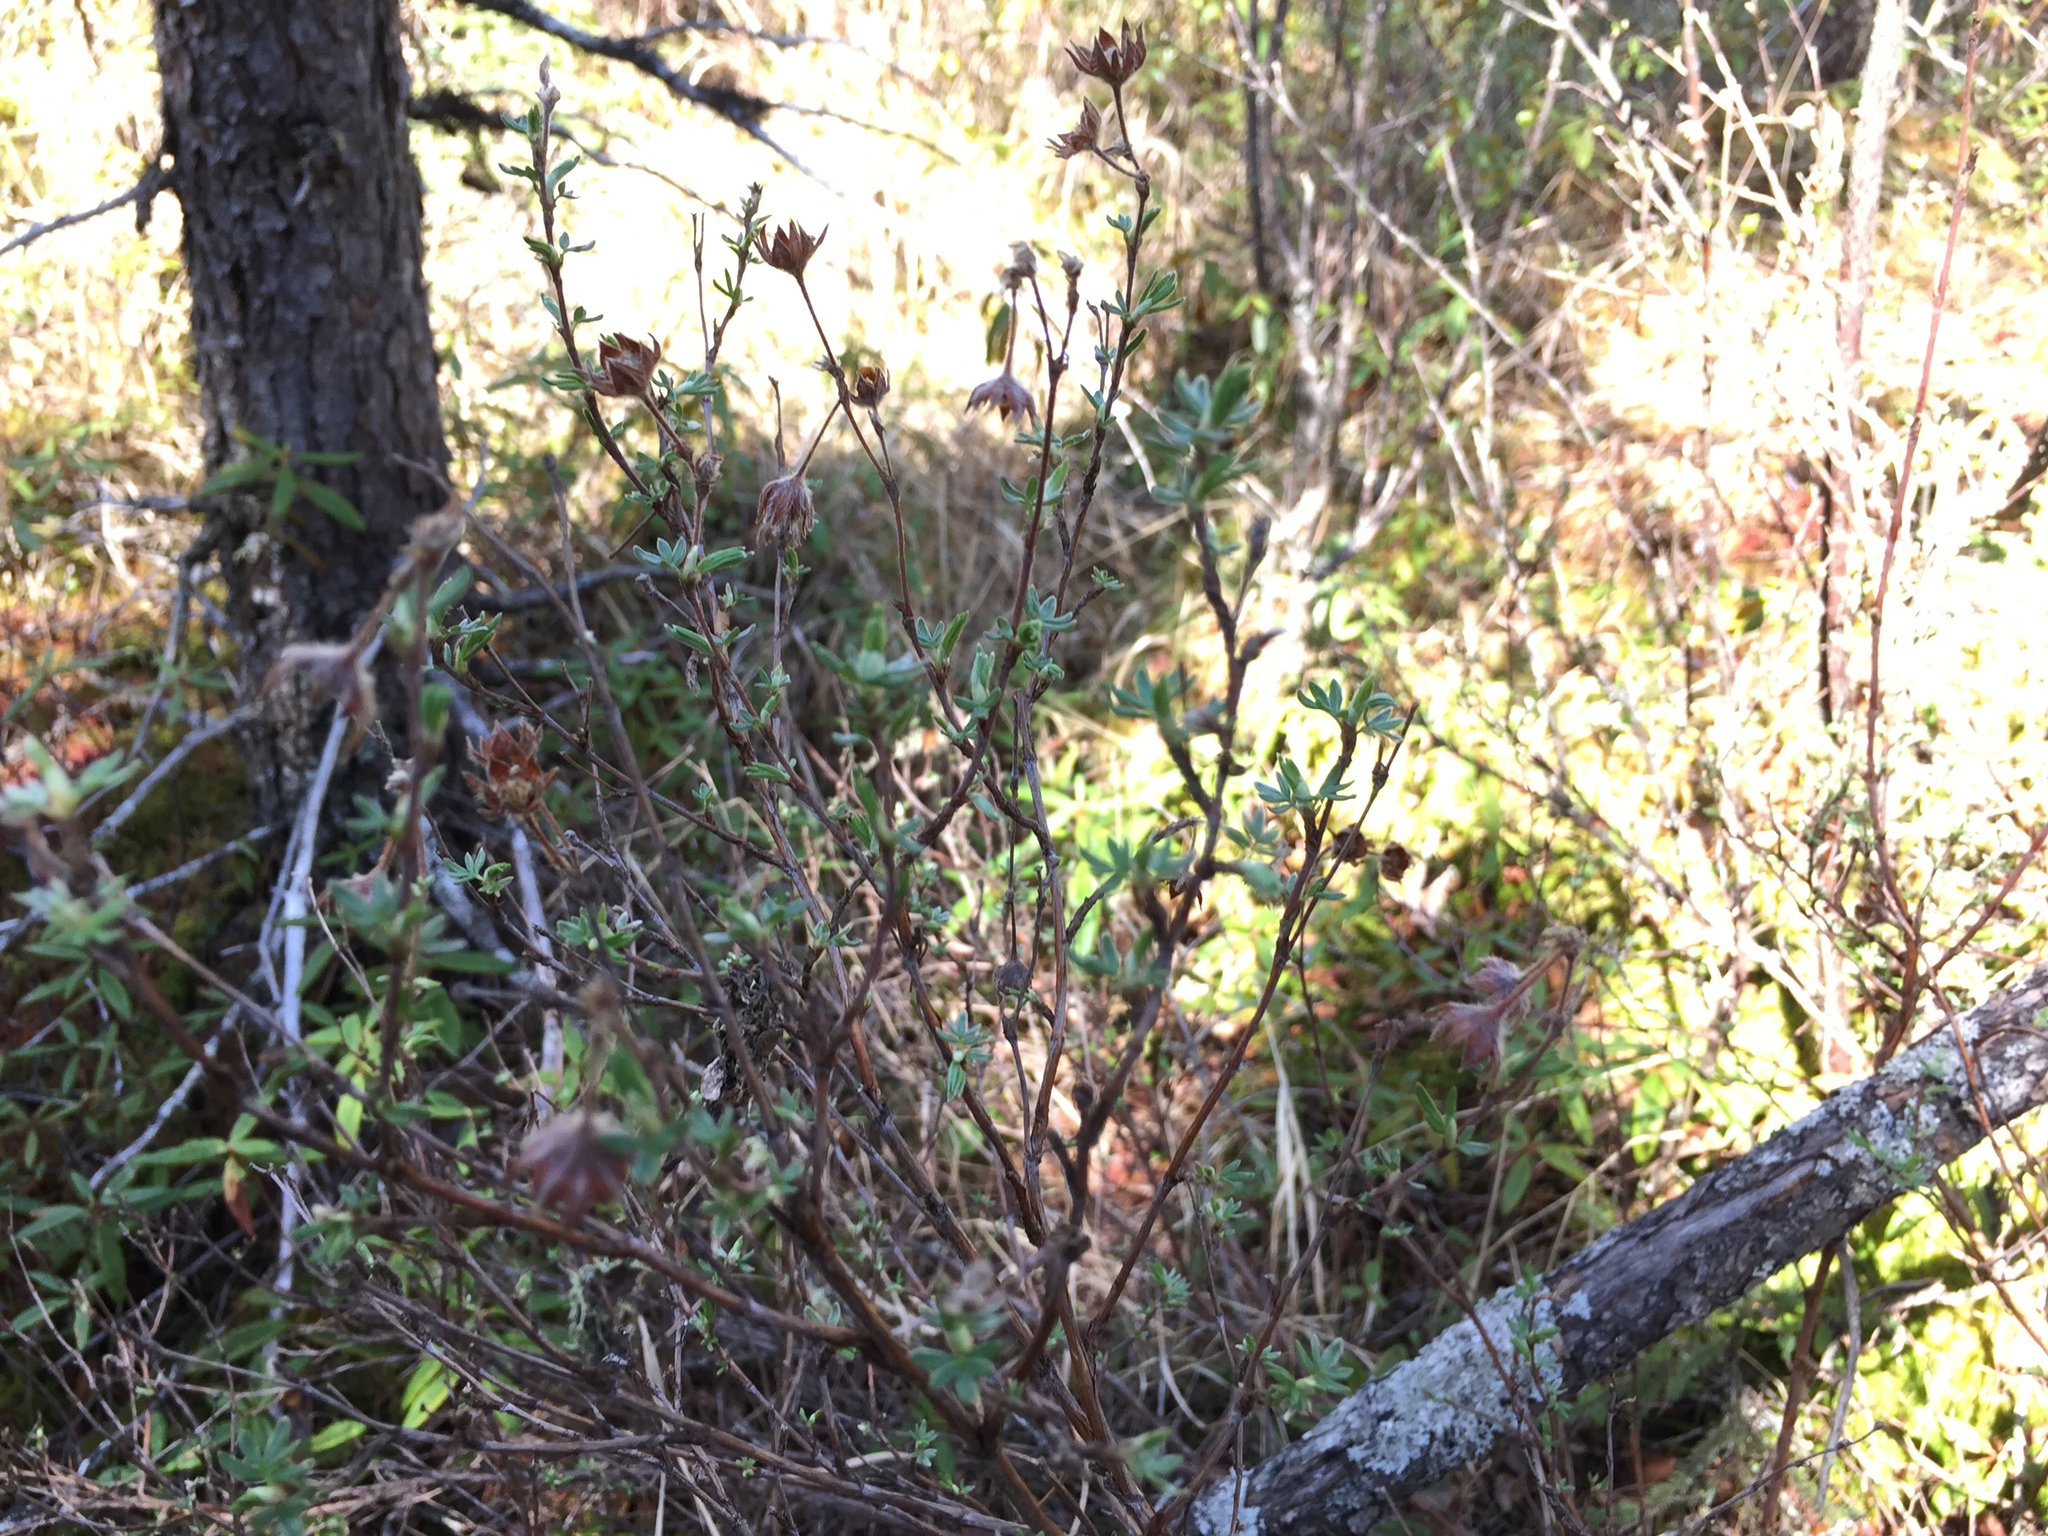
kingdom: Plantae
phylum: Tracheophyta
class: Magnoliopsida
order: Rosales
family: Rosaceae
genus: Dasiphora
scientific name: Dasiphora fruticosa
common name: Shrubby cinquefoil
